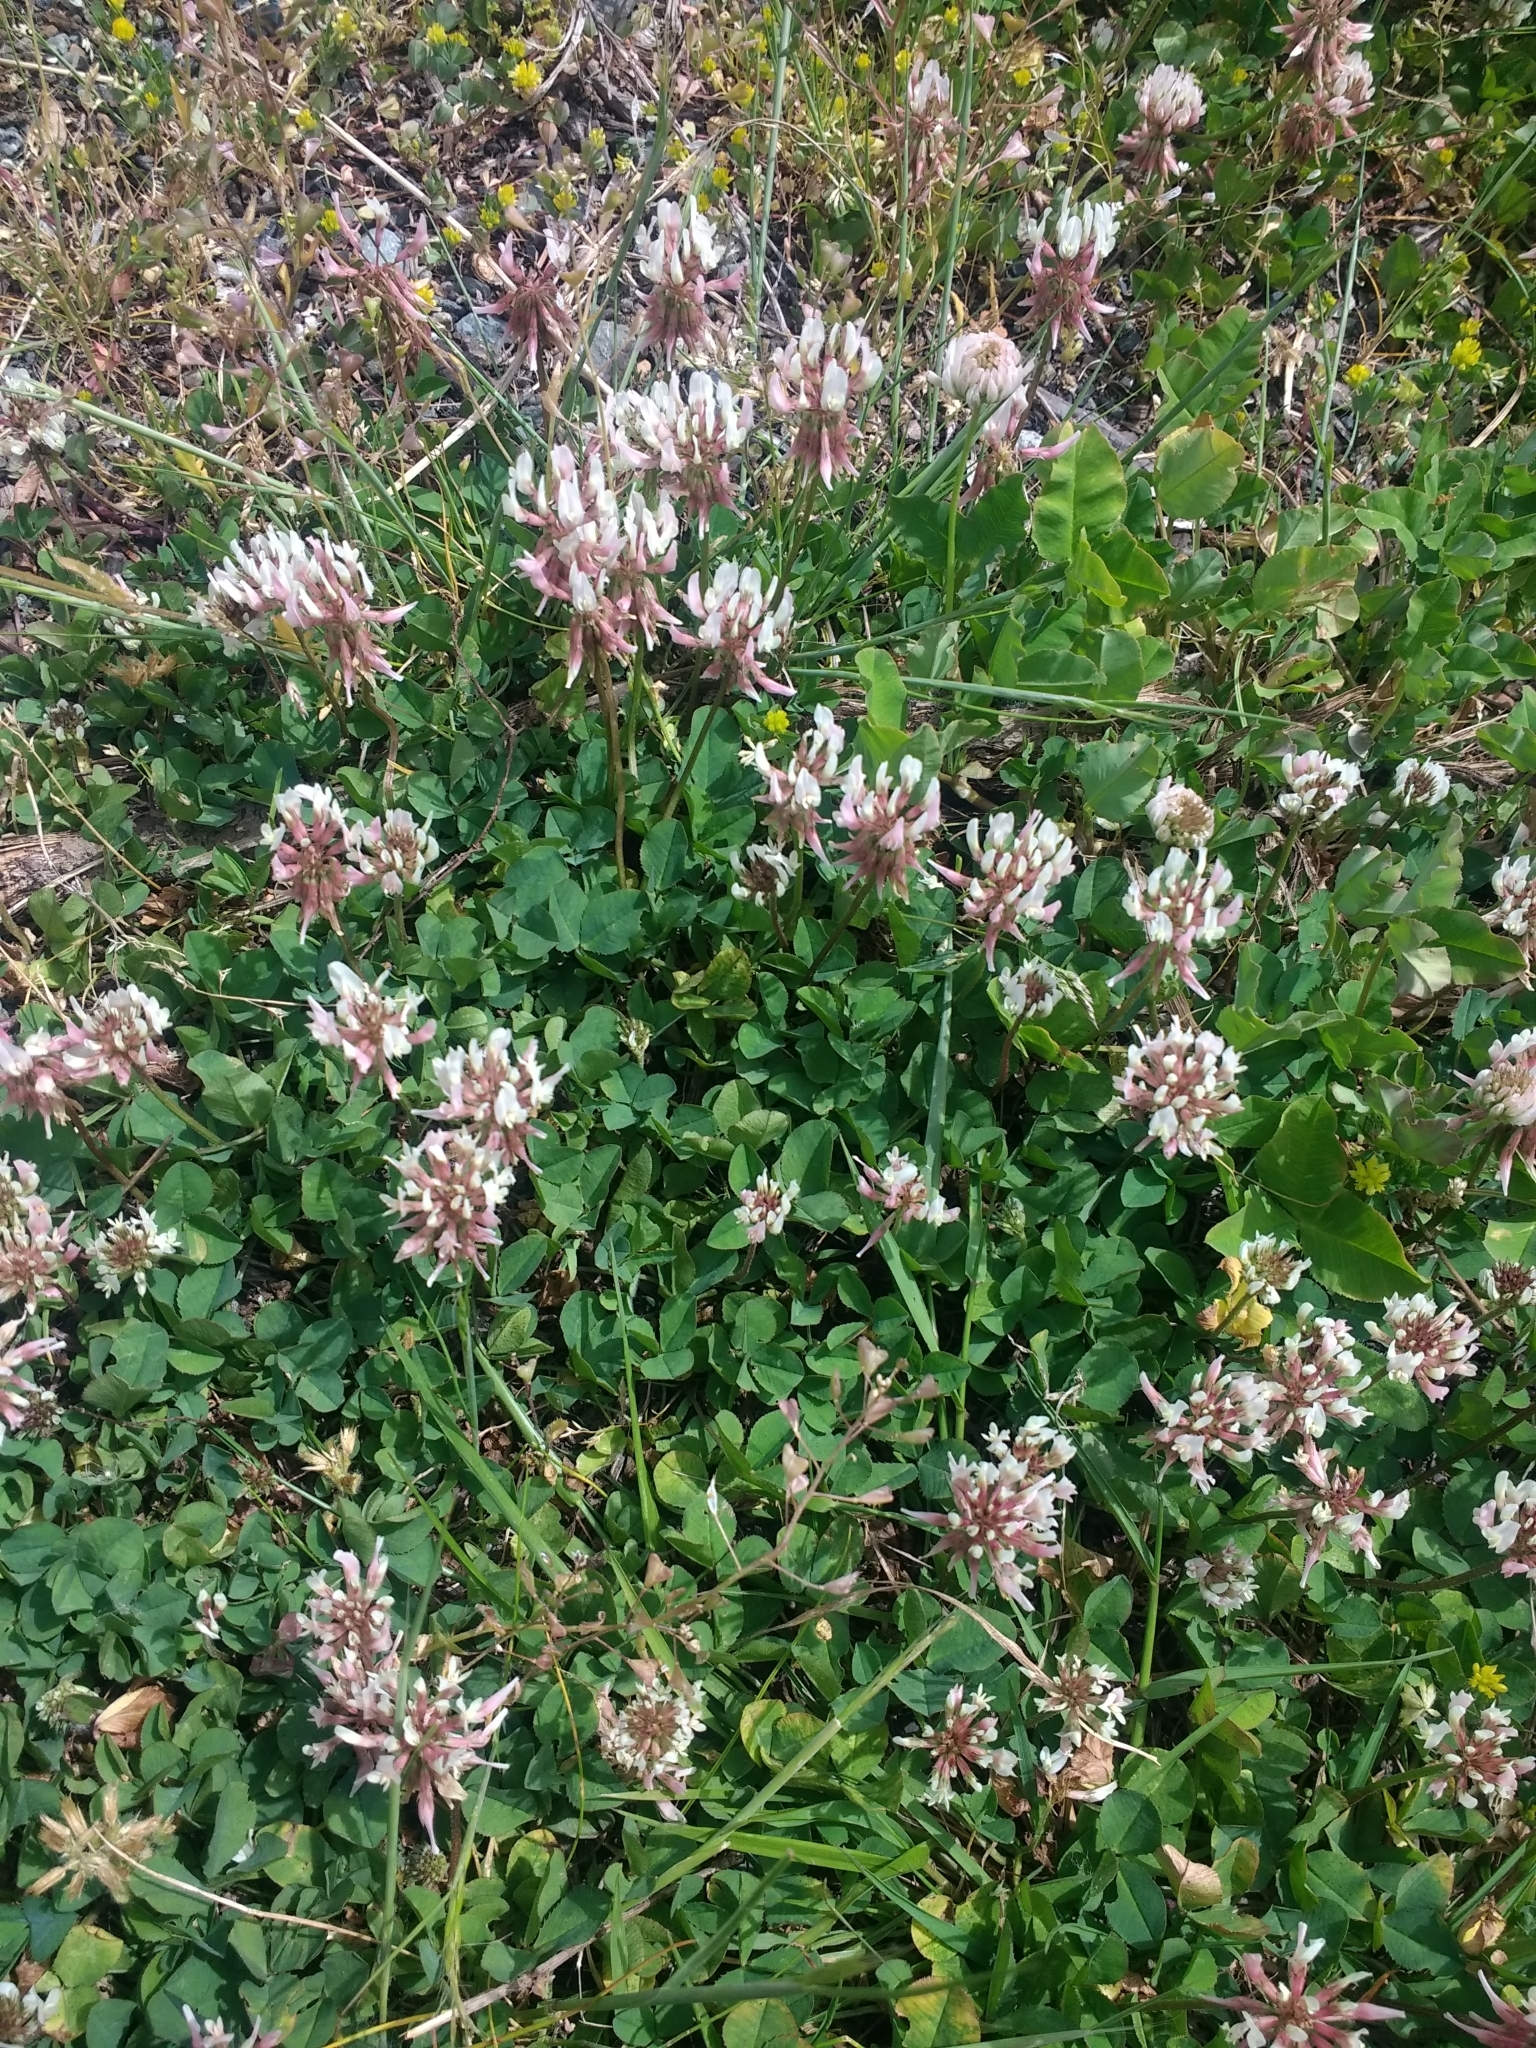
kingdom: Plantae
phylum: Tracheophyta
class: Magnoliopsida
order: Fabales
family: Fabaceae
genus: Trifolium
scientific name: Trifolium repens
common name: White clover
